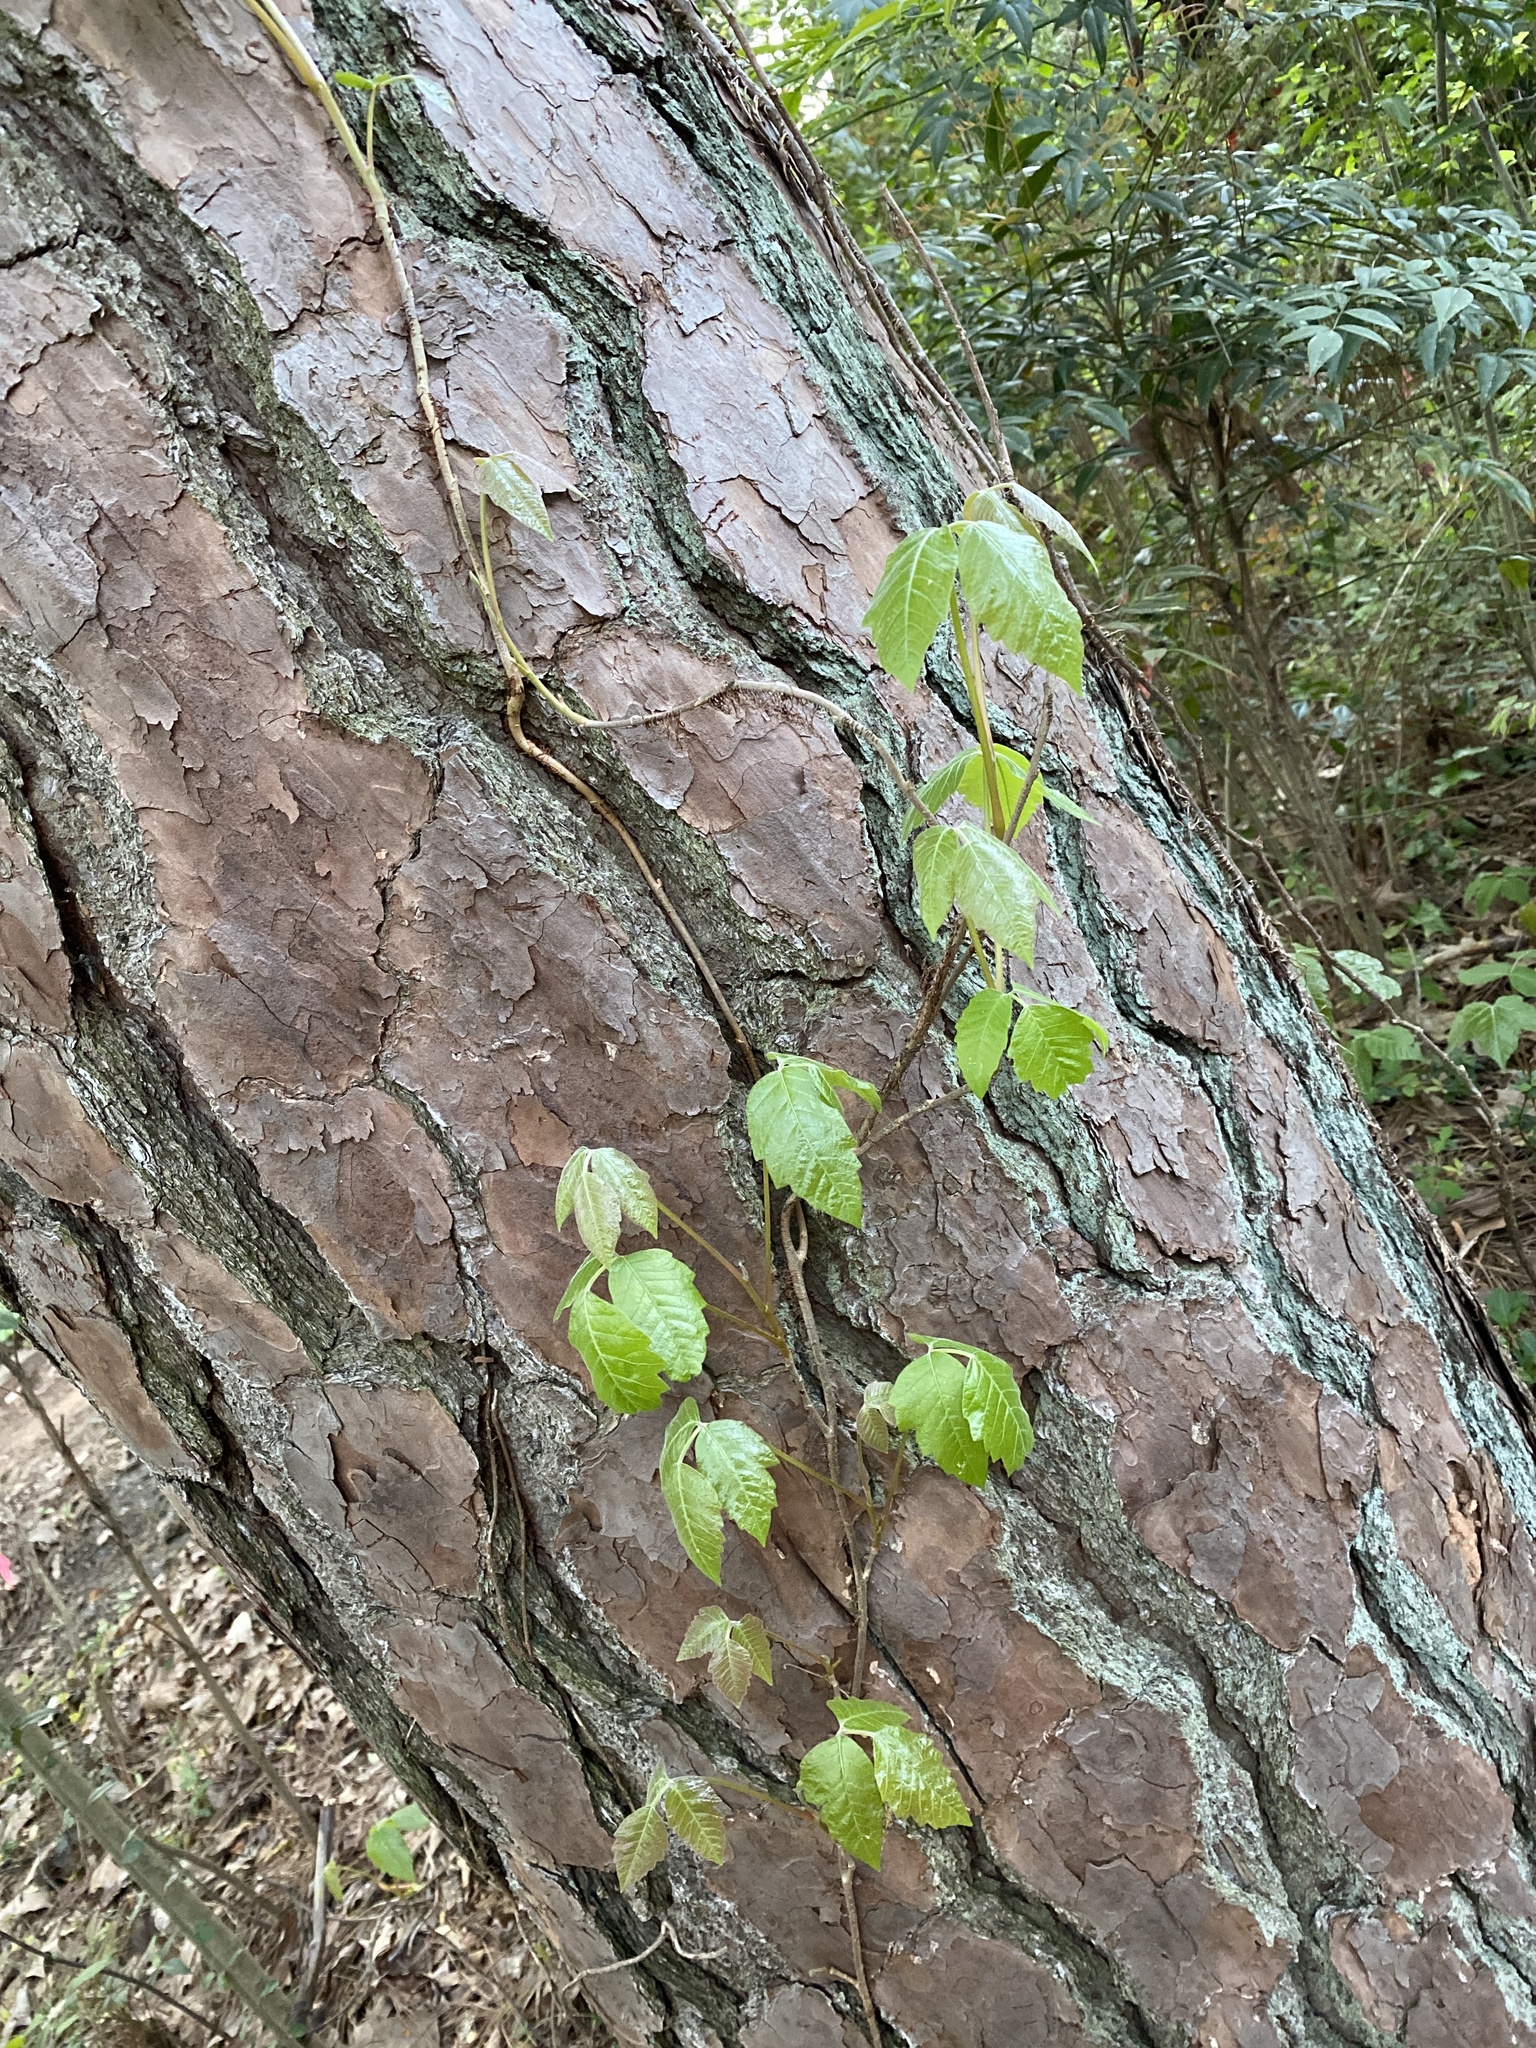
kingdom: Plantae
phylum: Tracheophyta
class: Magnoliopsida
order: Sapindales
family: Anacardiaceae
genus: Toxicodendron
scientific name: Toxicodendron radicans
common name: Poison ivy
